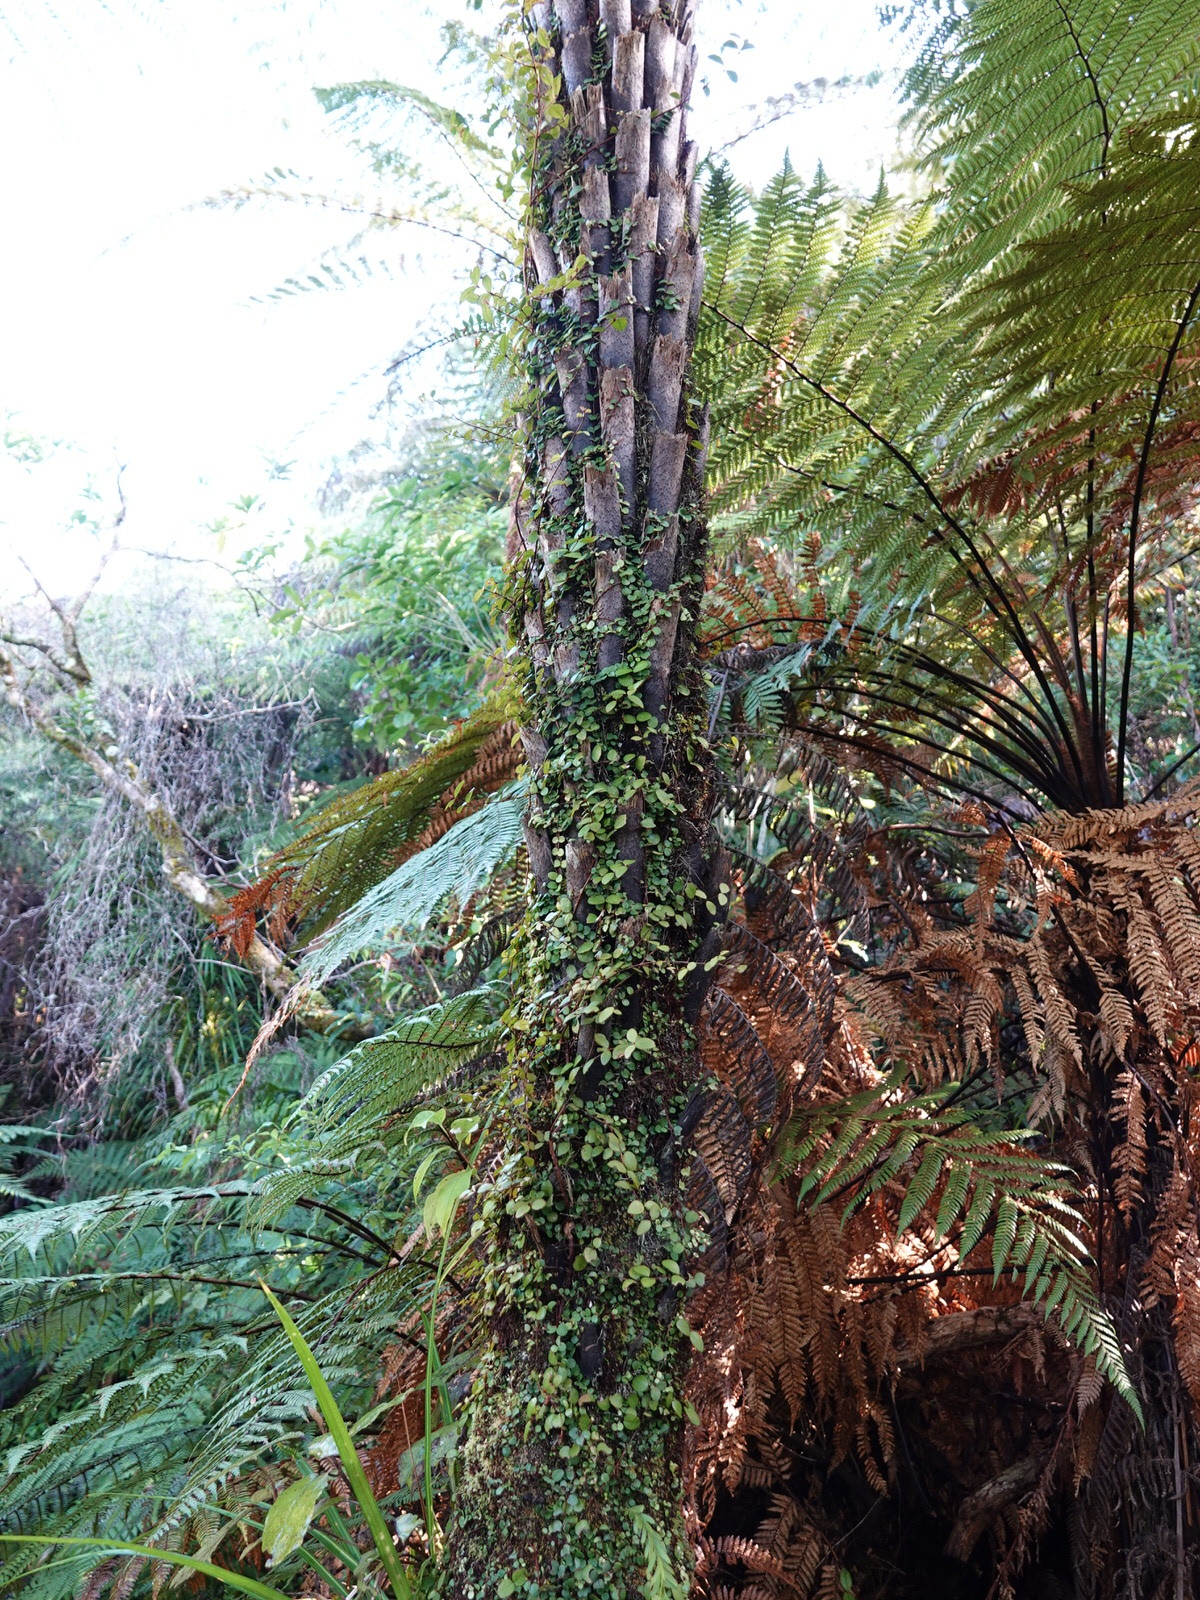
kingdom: Plantae
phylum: Tracheophyta
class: Magnoliopsida
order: Myrtales
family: Myrtaceae
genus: Metrosideros
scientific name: Metrosideros fulgens
